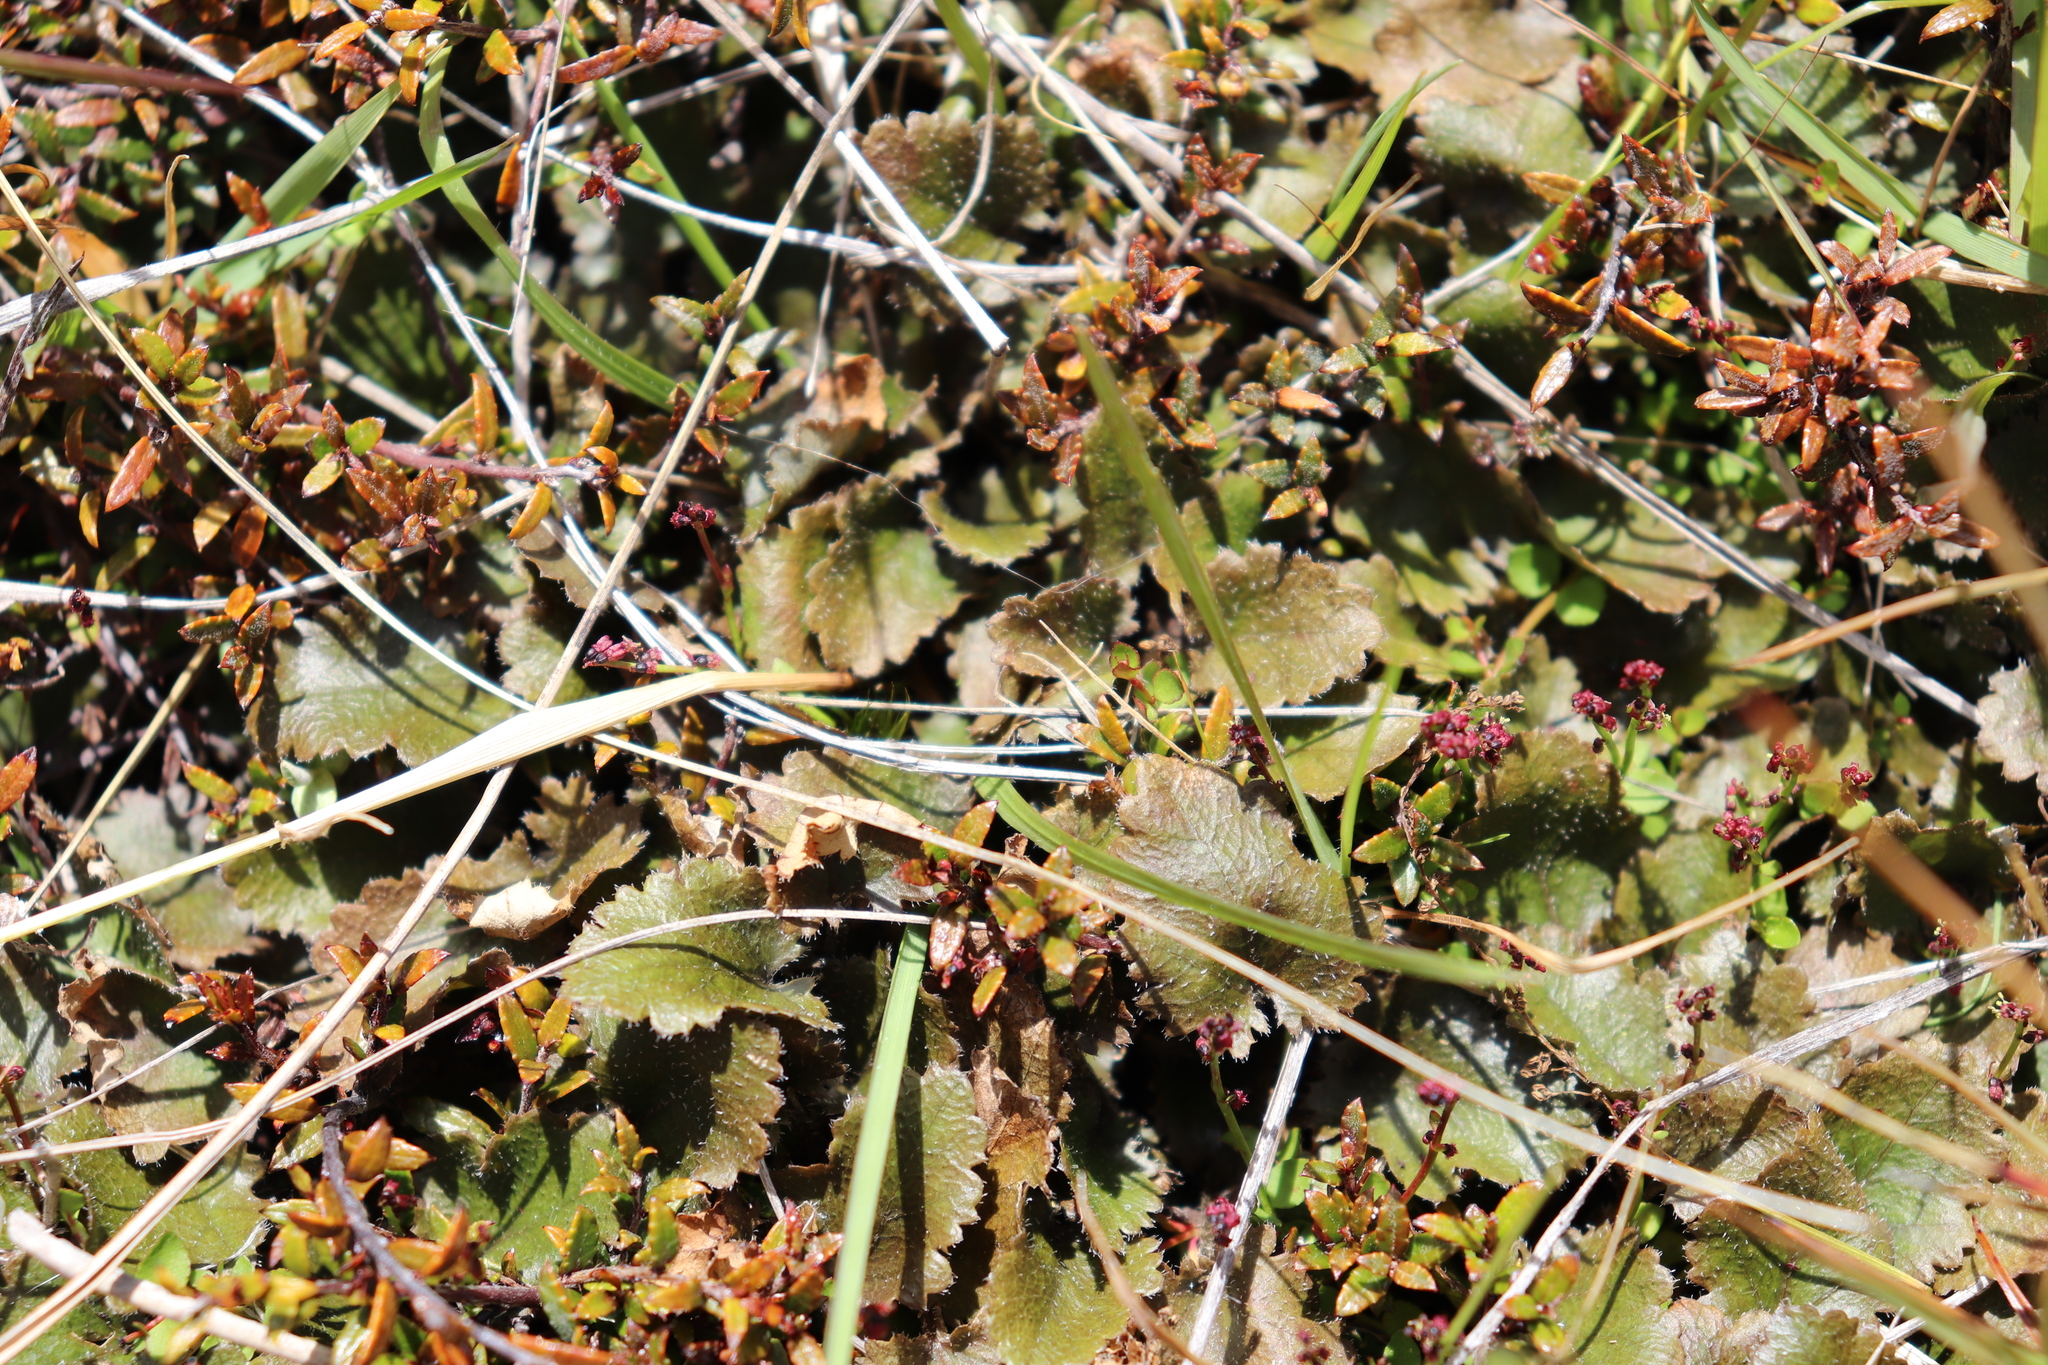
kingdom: Plantae
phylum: Tracheophyta
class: Magnoliopsida
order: Gunnerales
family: Gunneraceae
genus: Gunnera
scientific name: Gunnera monoica
